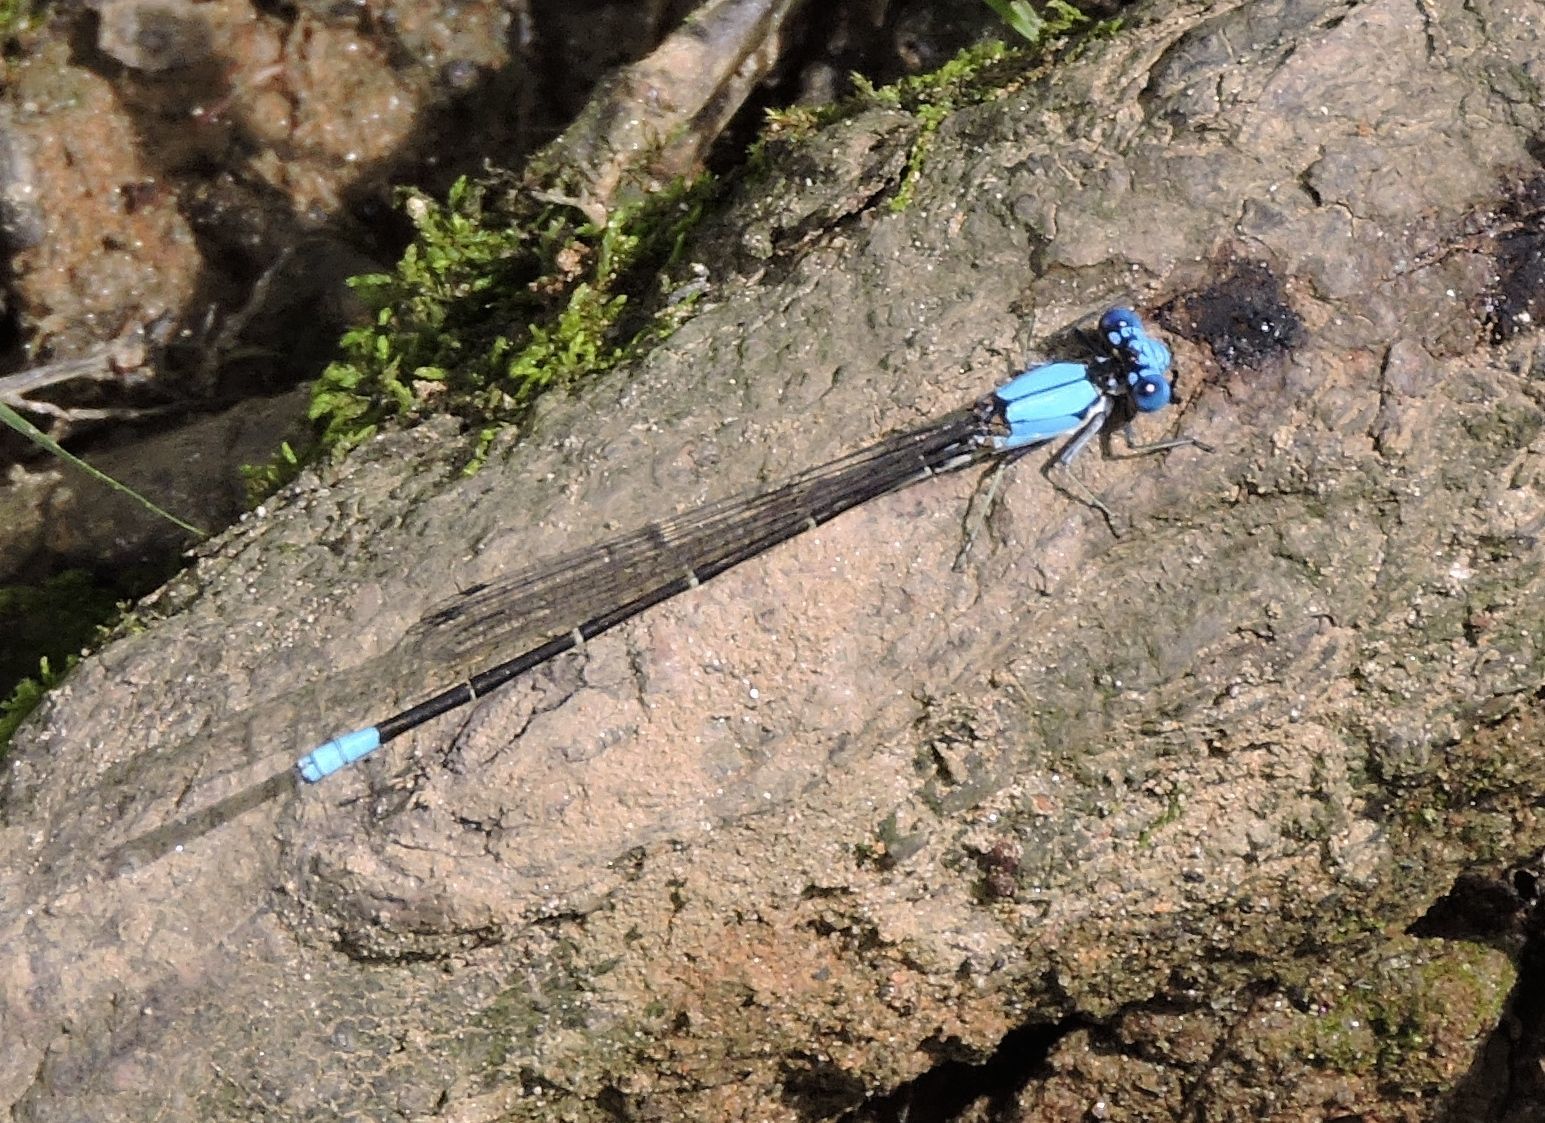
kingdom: Animalia
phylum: Arthropoda
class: Insecta
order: Odonata
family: Coenagrionidae
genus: Argia
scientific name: Argia apicalis
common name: Blue-fronted dancer
